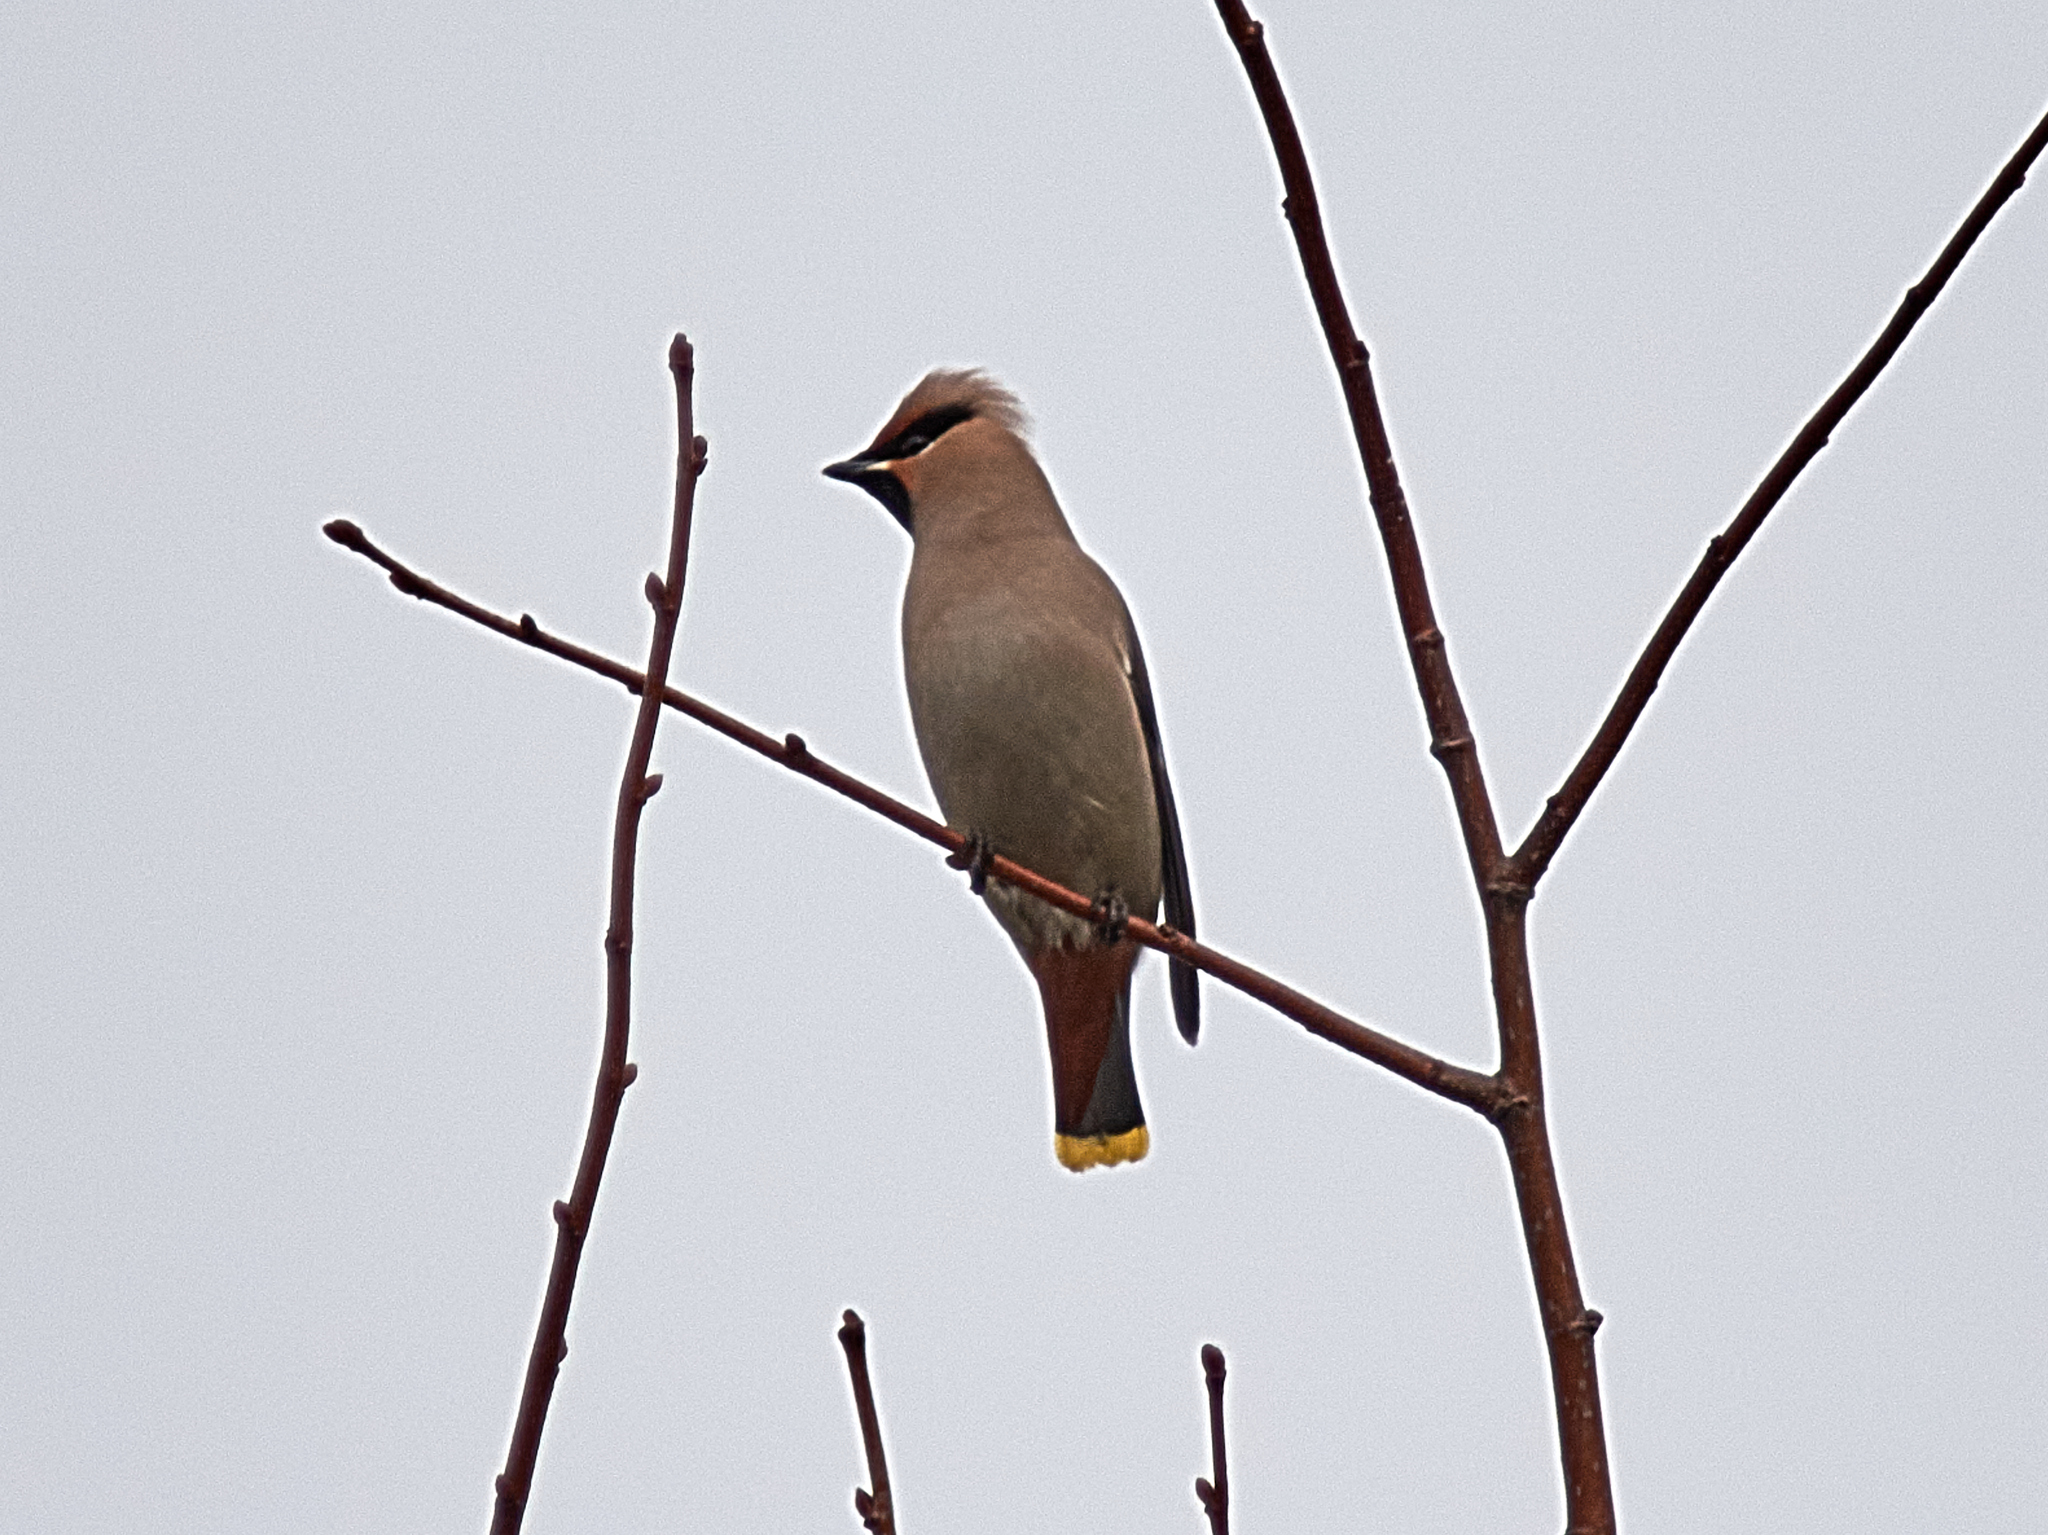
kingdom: Animalia
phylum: Chordata
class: Aves
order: Passeriformes
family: Bombycillidae
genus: Bombycilla
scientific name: Bombycilla garrulus
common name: Bohemian waxwing
